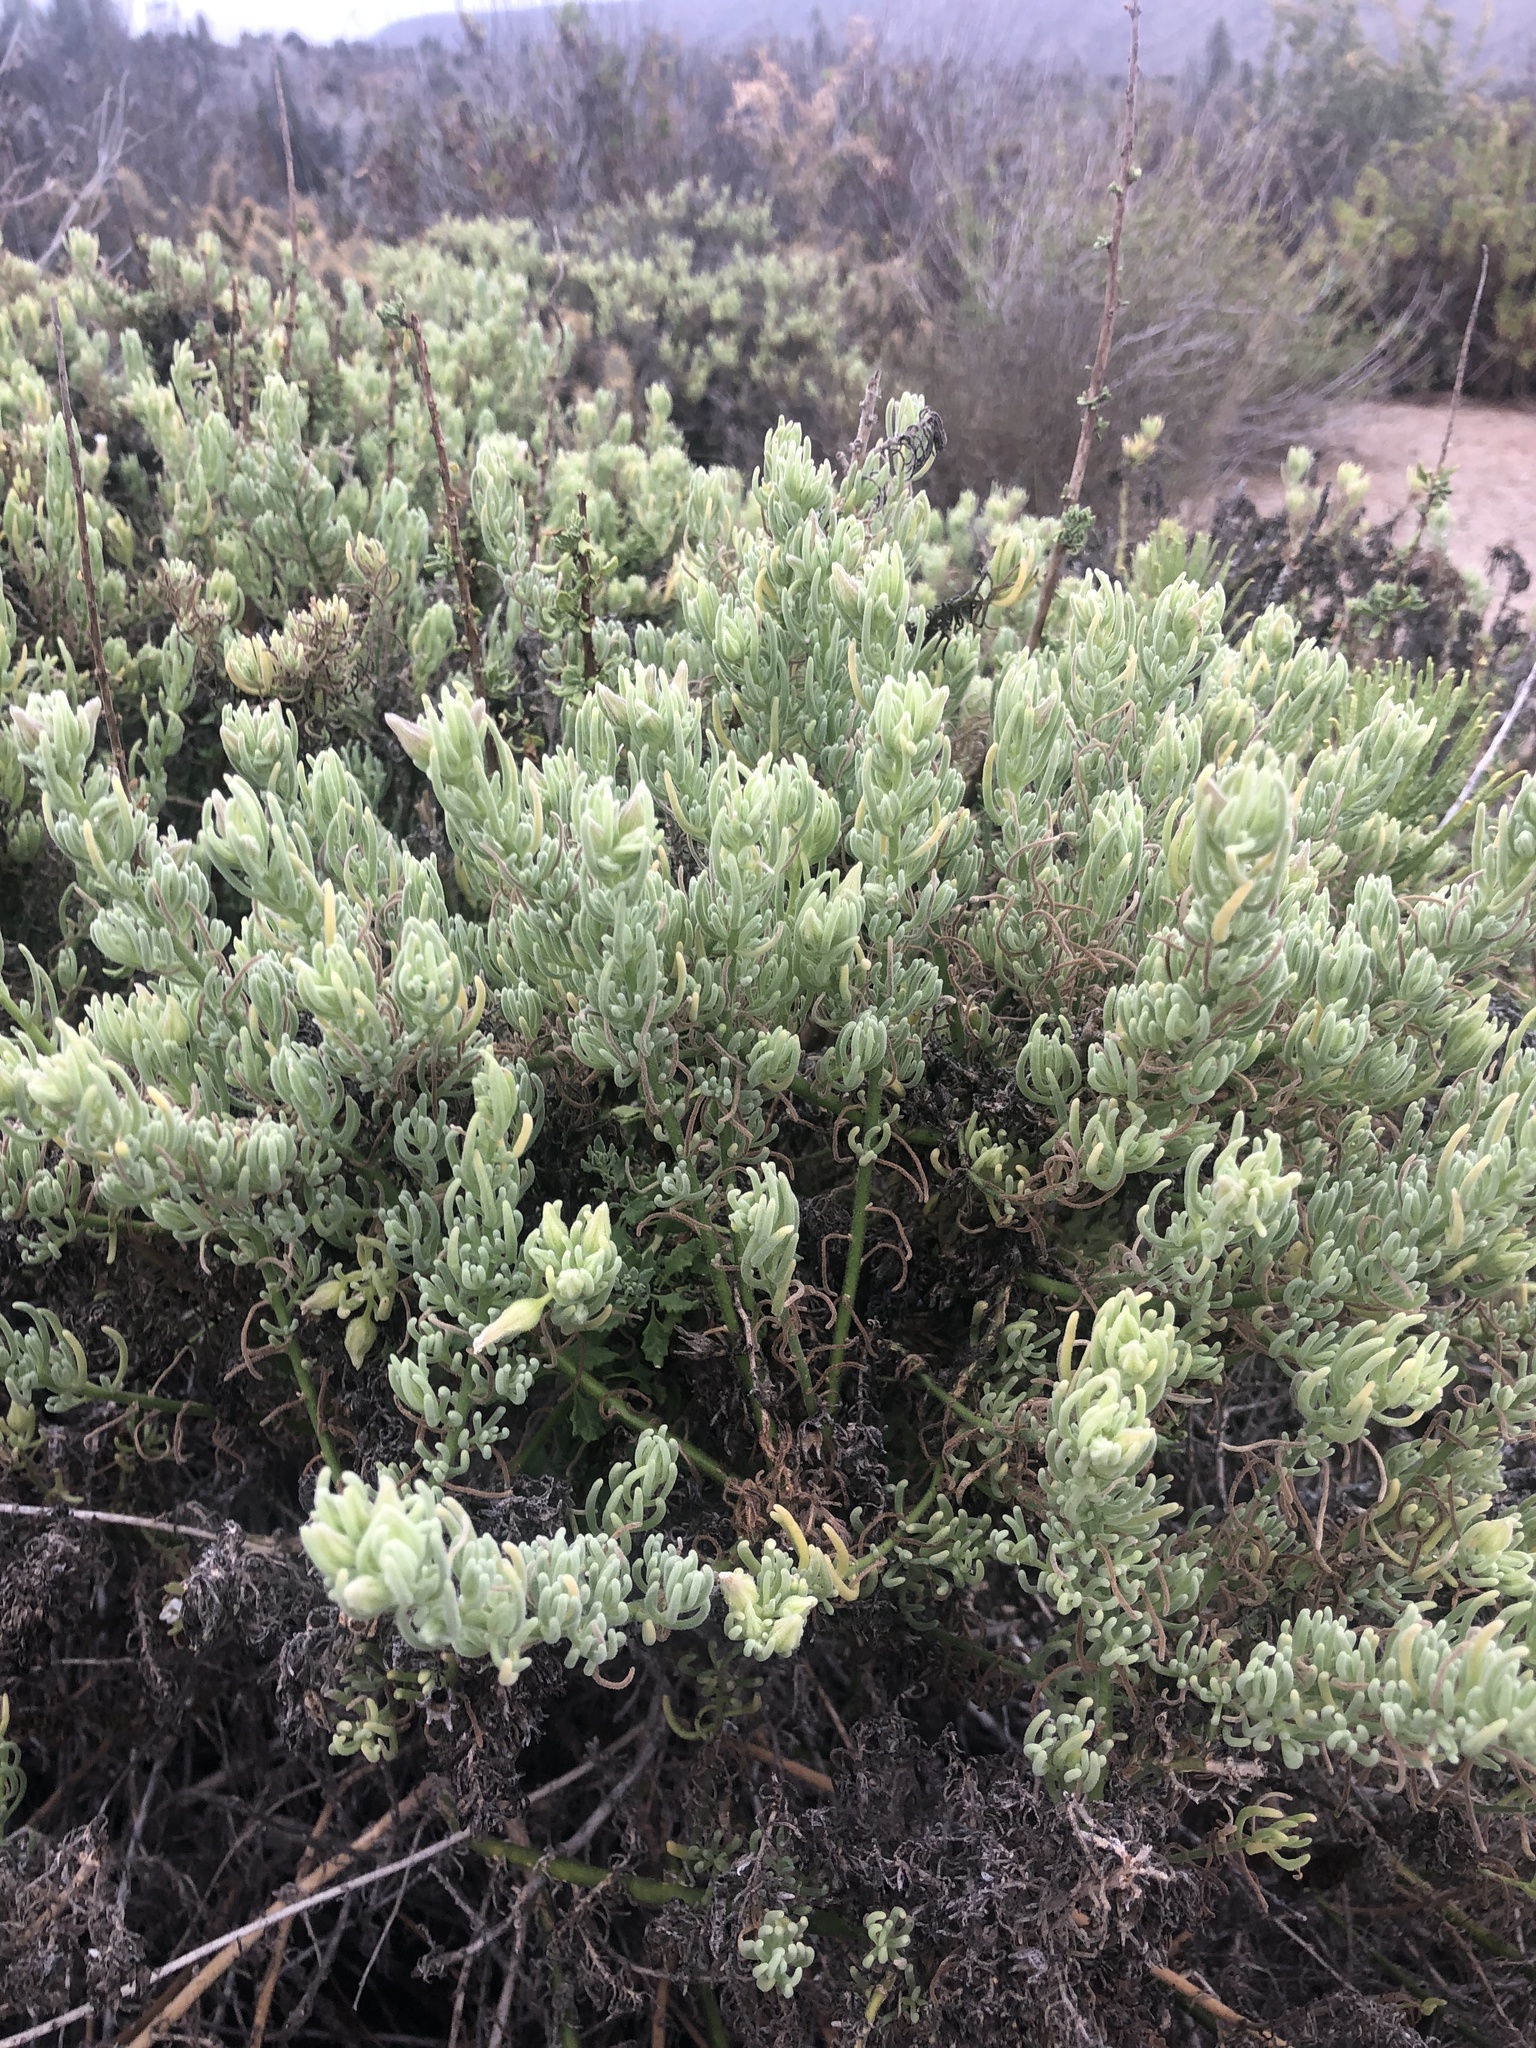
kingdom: Plantae
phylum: Tracheophyta
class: Magnoliopsida
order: Solanales
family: Solanaceae
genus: Nolana
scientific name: Nolana werdermannii
